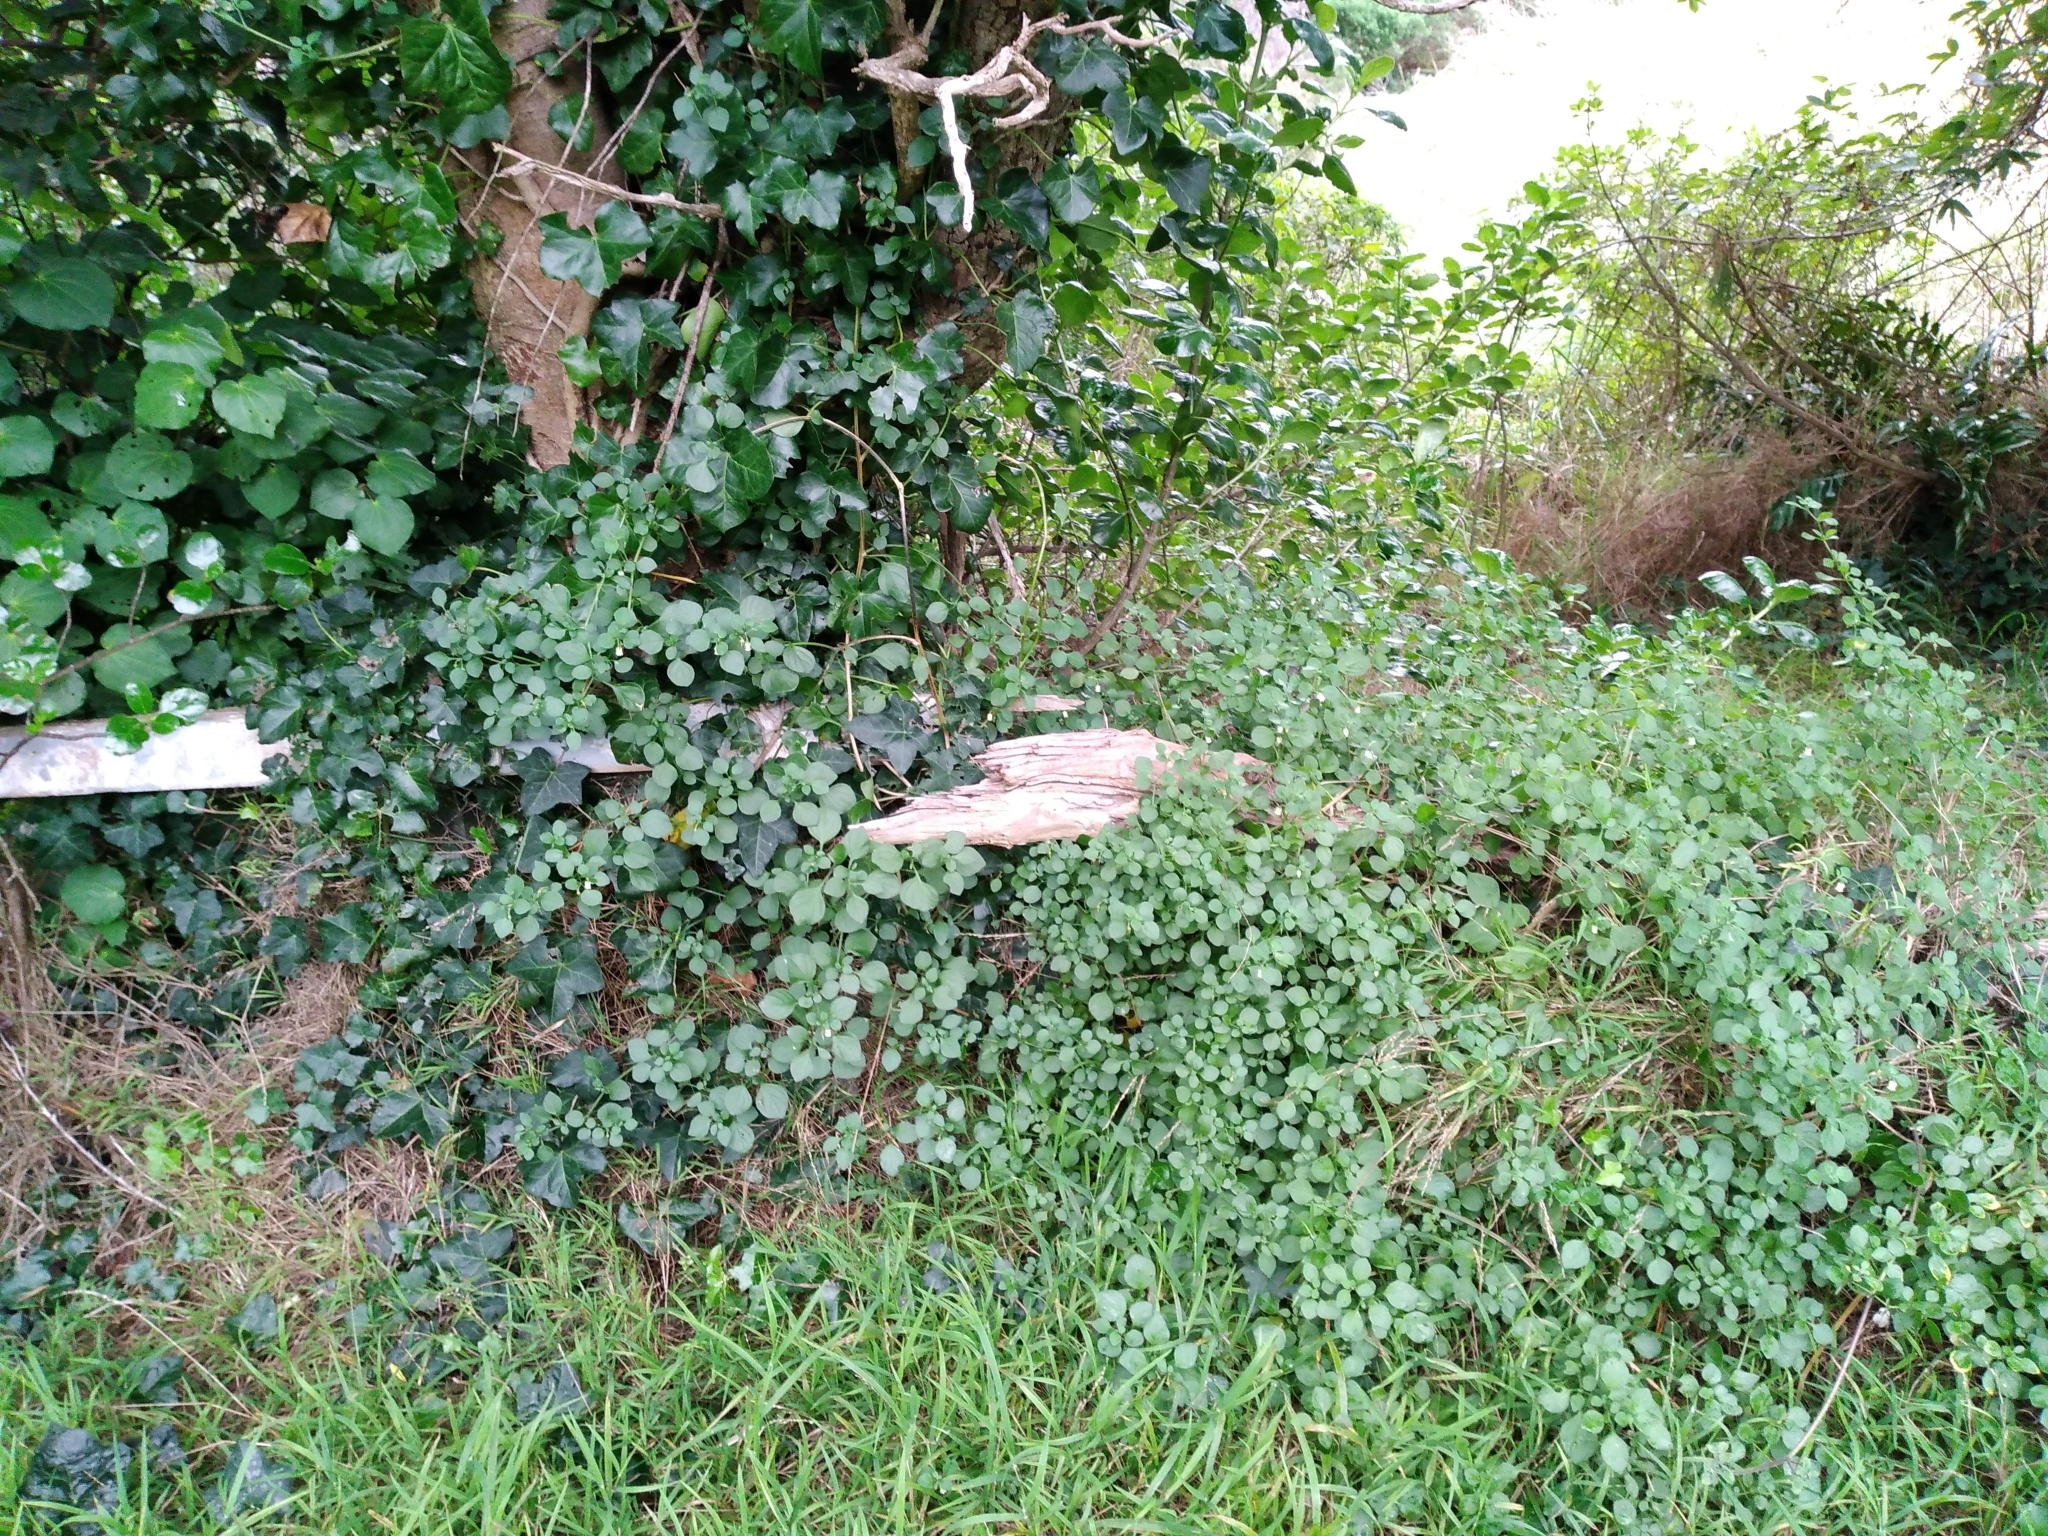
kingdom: Plantae
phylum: Tracheophyta
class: Magnoliopsida
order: Solanales
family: Solanaceae
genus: Salpichroa
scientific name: Salpichroa origanifolia
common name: Lily-of-the-valley-vine
